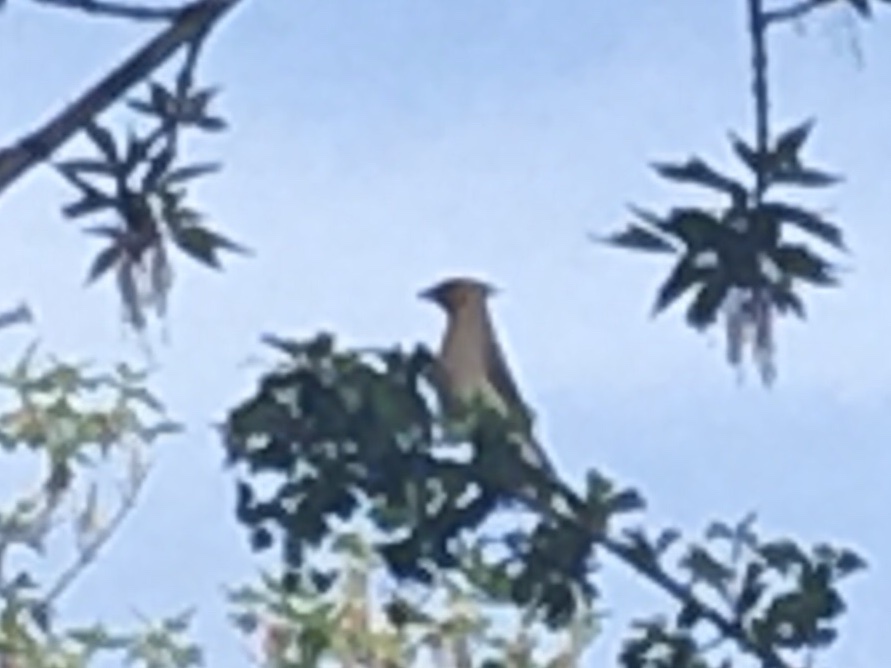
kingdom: Animalia
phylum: Chordata
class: Aves
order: Passeriformes
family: Bombycillidae
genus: Bombycilla
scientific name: Bombycilla cedrorum
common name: Cedar waxwing
